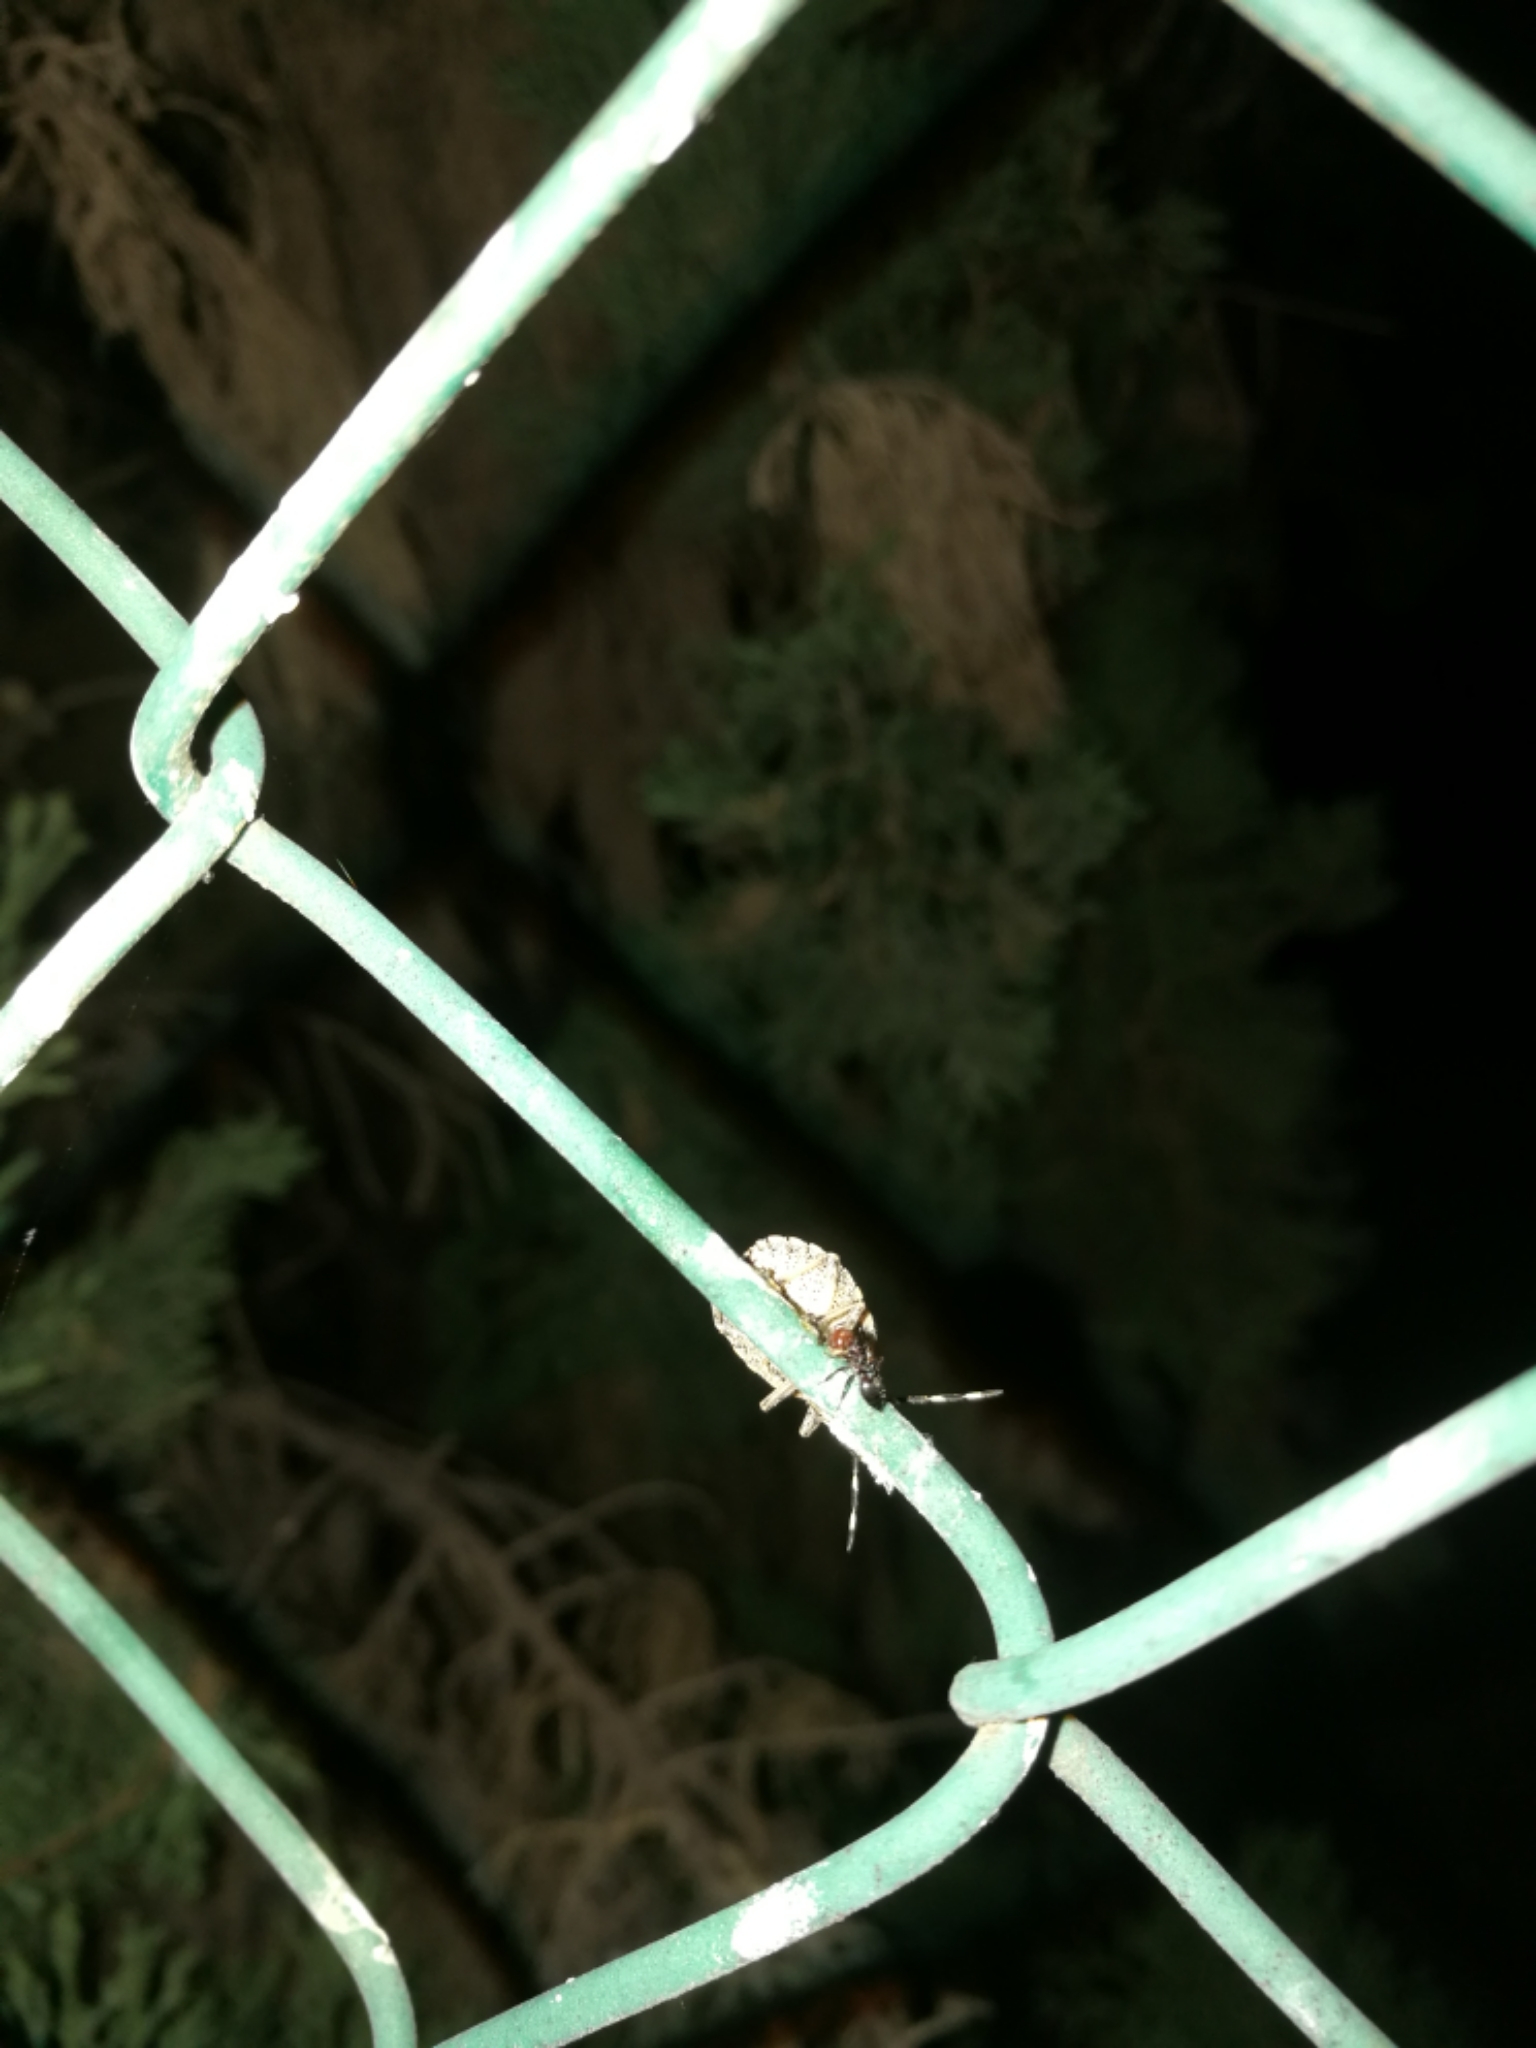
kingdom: Animalia
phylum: Arthropoda
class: Insecta
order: Hymenoptera
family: Formicidae
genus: Crematogaster
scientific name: Crematogaster scutellaris
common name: Fourmi du liège
